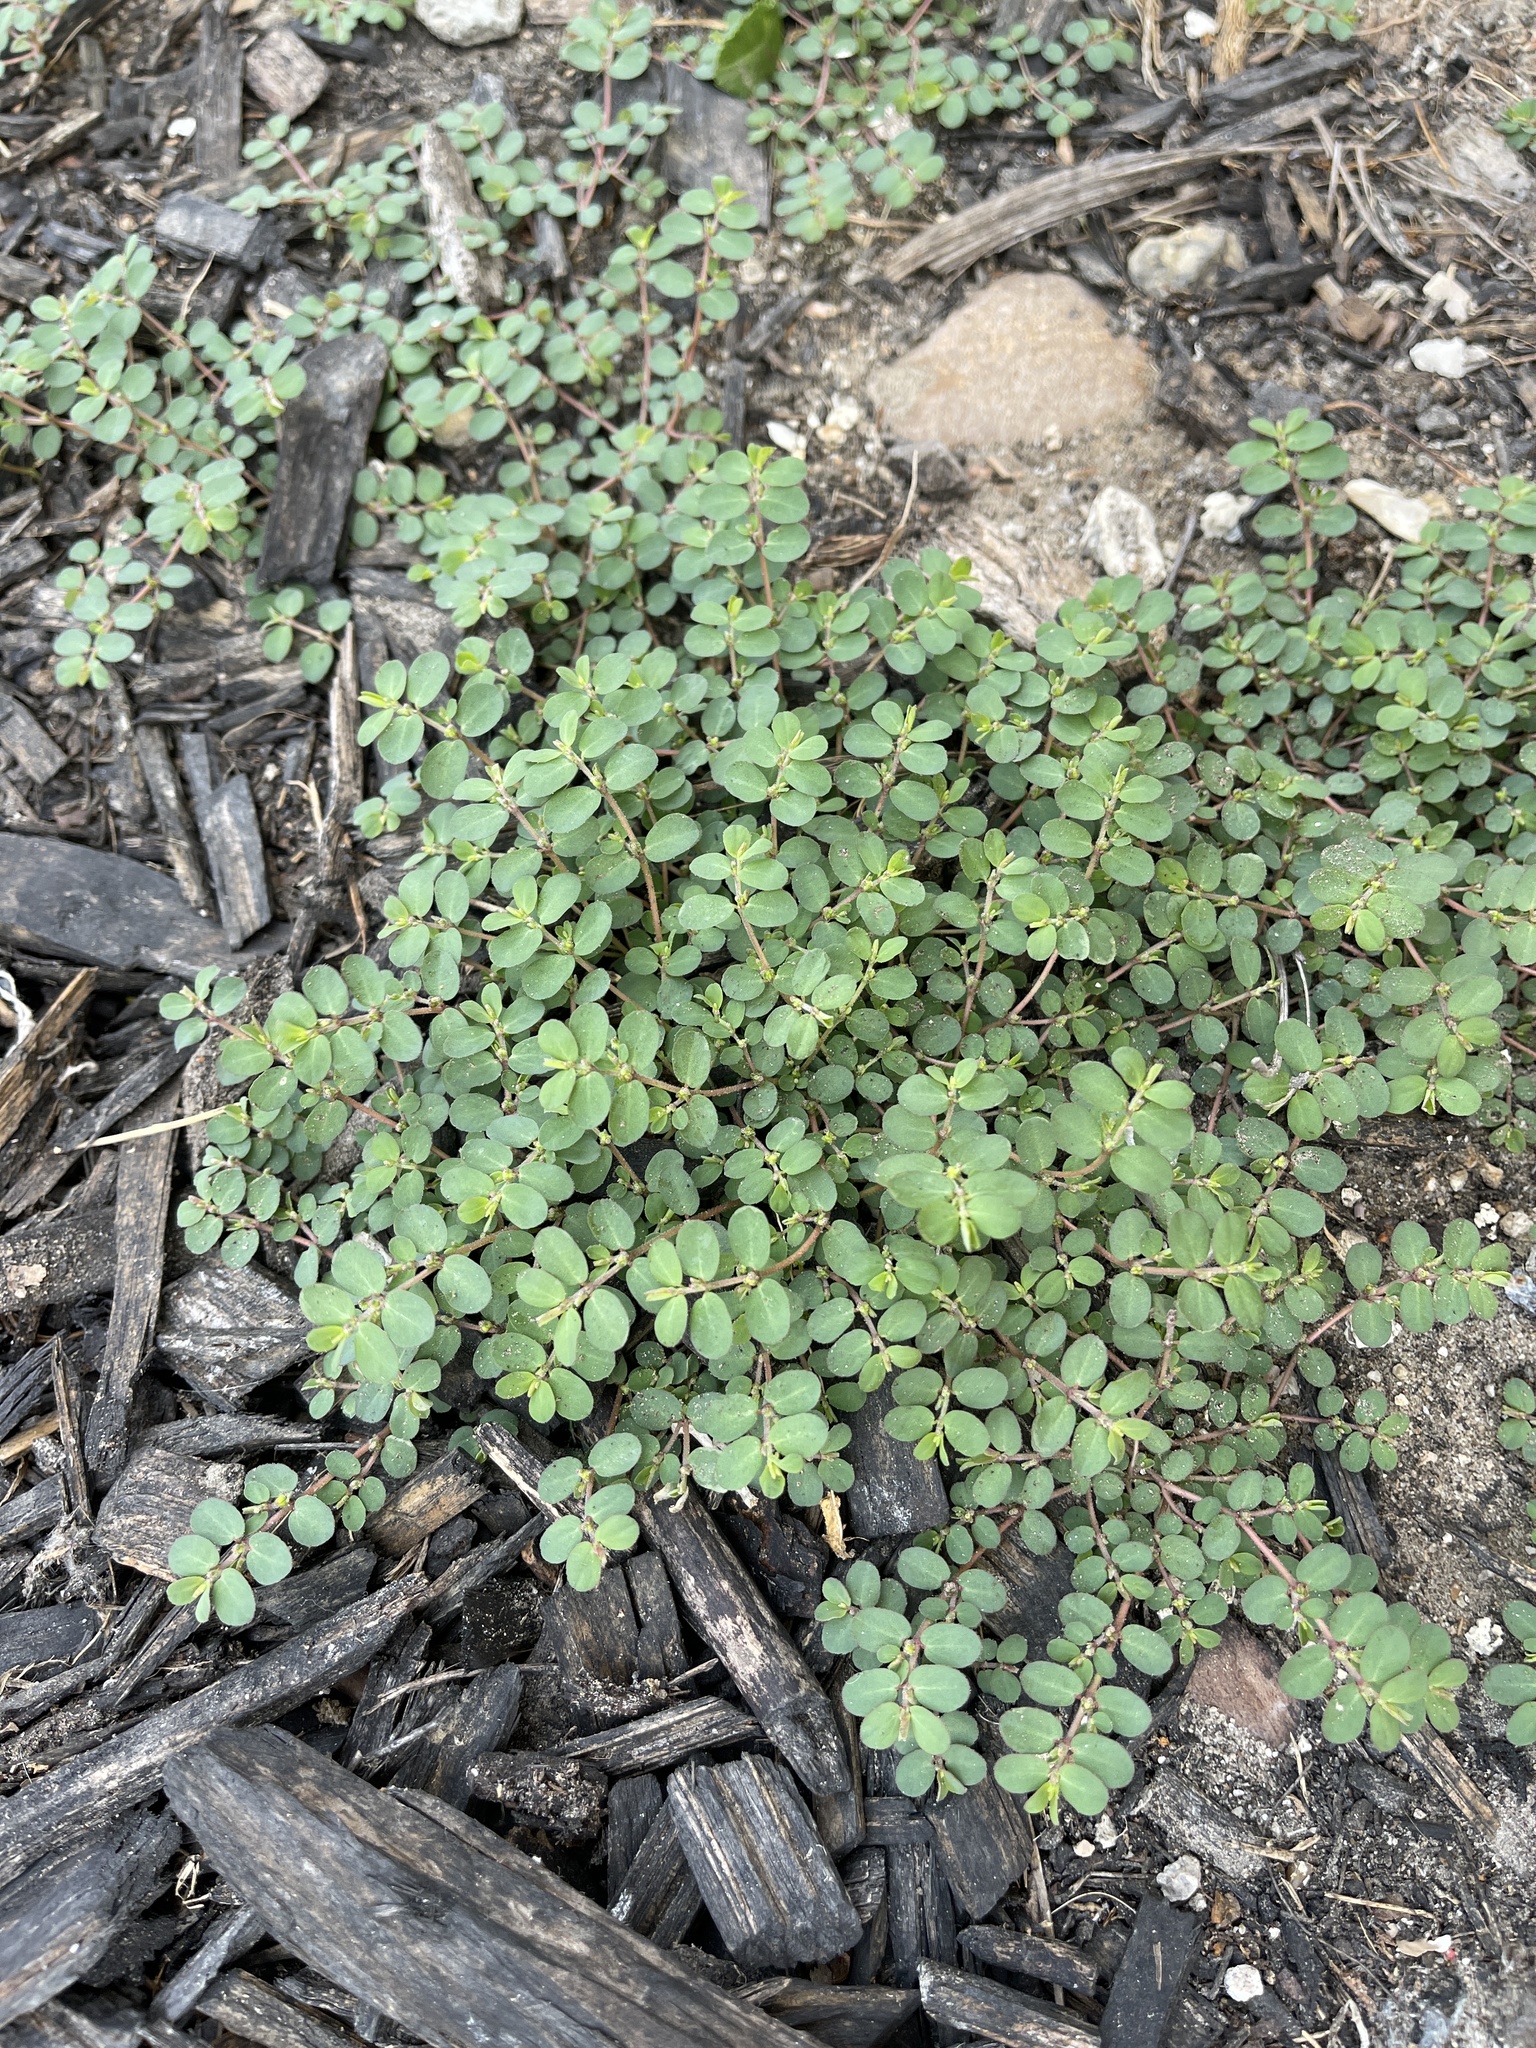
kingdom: Plantae
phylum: Tracheophyta
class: Magnoliopsida
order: Malpighiales
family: Euphorbiaceae
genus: Euphorbia
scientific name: Euphorbia prostrata
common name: Prostrate sandmat
